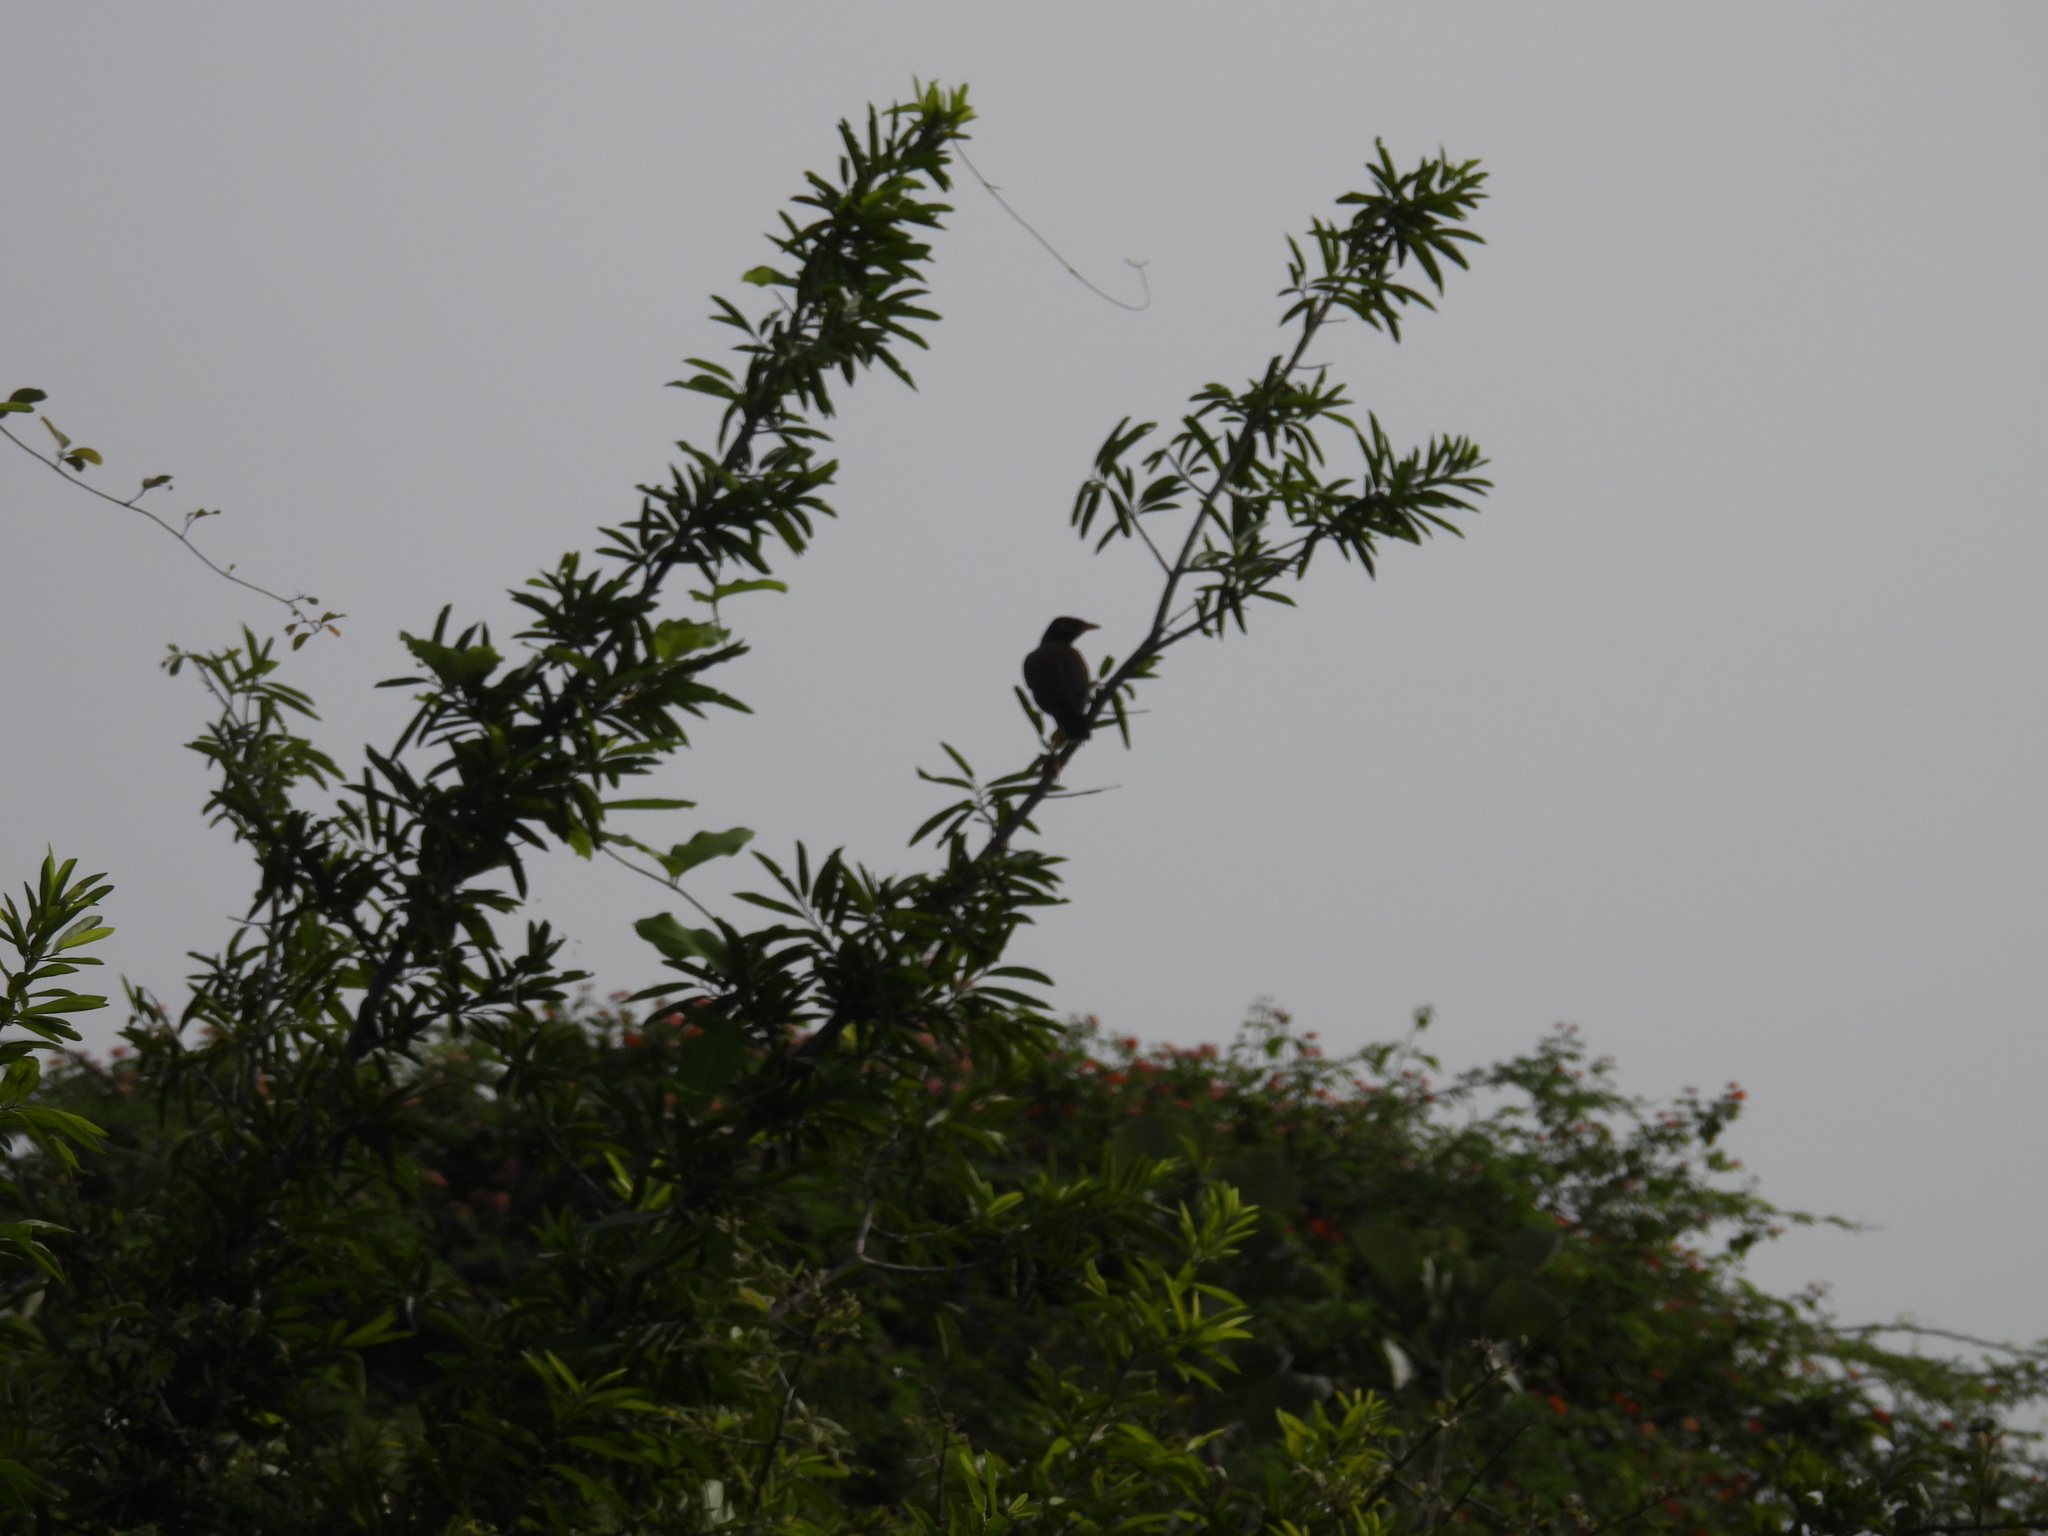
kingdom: Animalia
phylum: Chordata
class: Aves
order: Passeriformes
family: Sturnidae
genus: Acridotheres
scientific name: Acridotheres tristis
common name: Common myna
